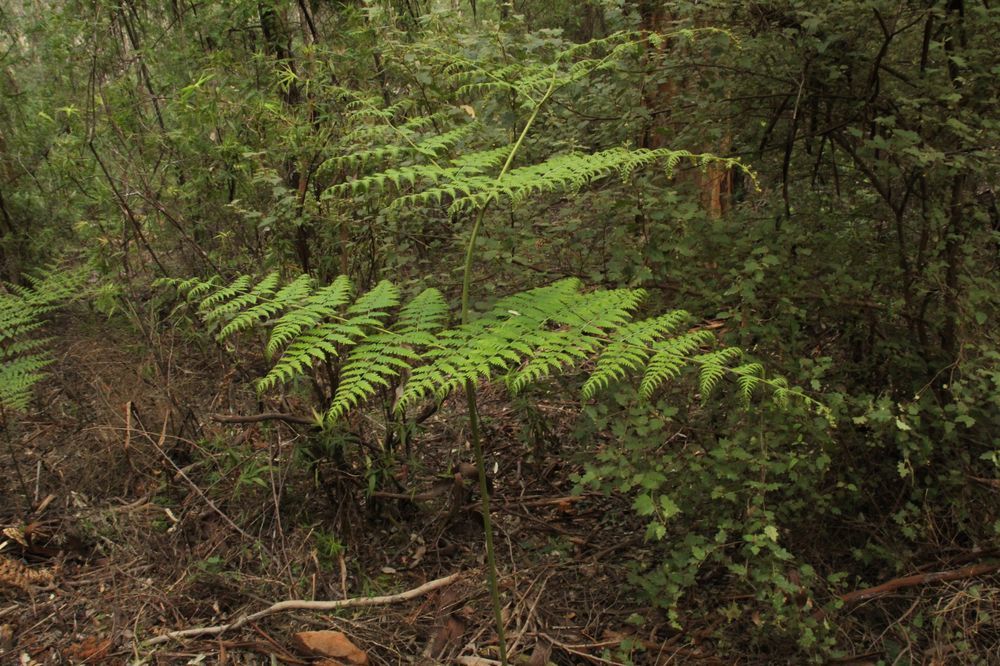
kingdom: Plantae
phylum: Tracheophyta
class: Polypodiopsida
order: Polypodiales
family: Dennstaedtiaceae
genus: Pteridium
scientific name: Pteridium esculentum
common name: Bracken fern
